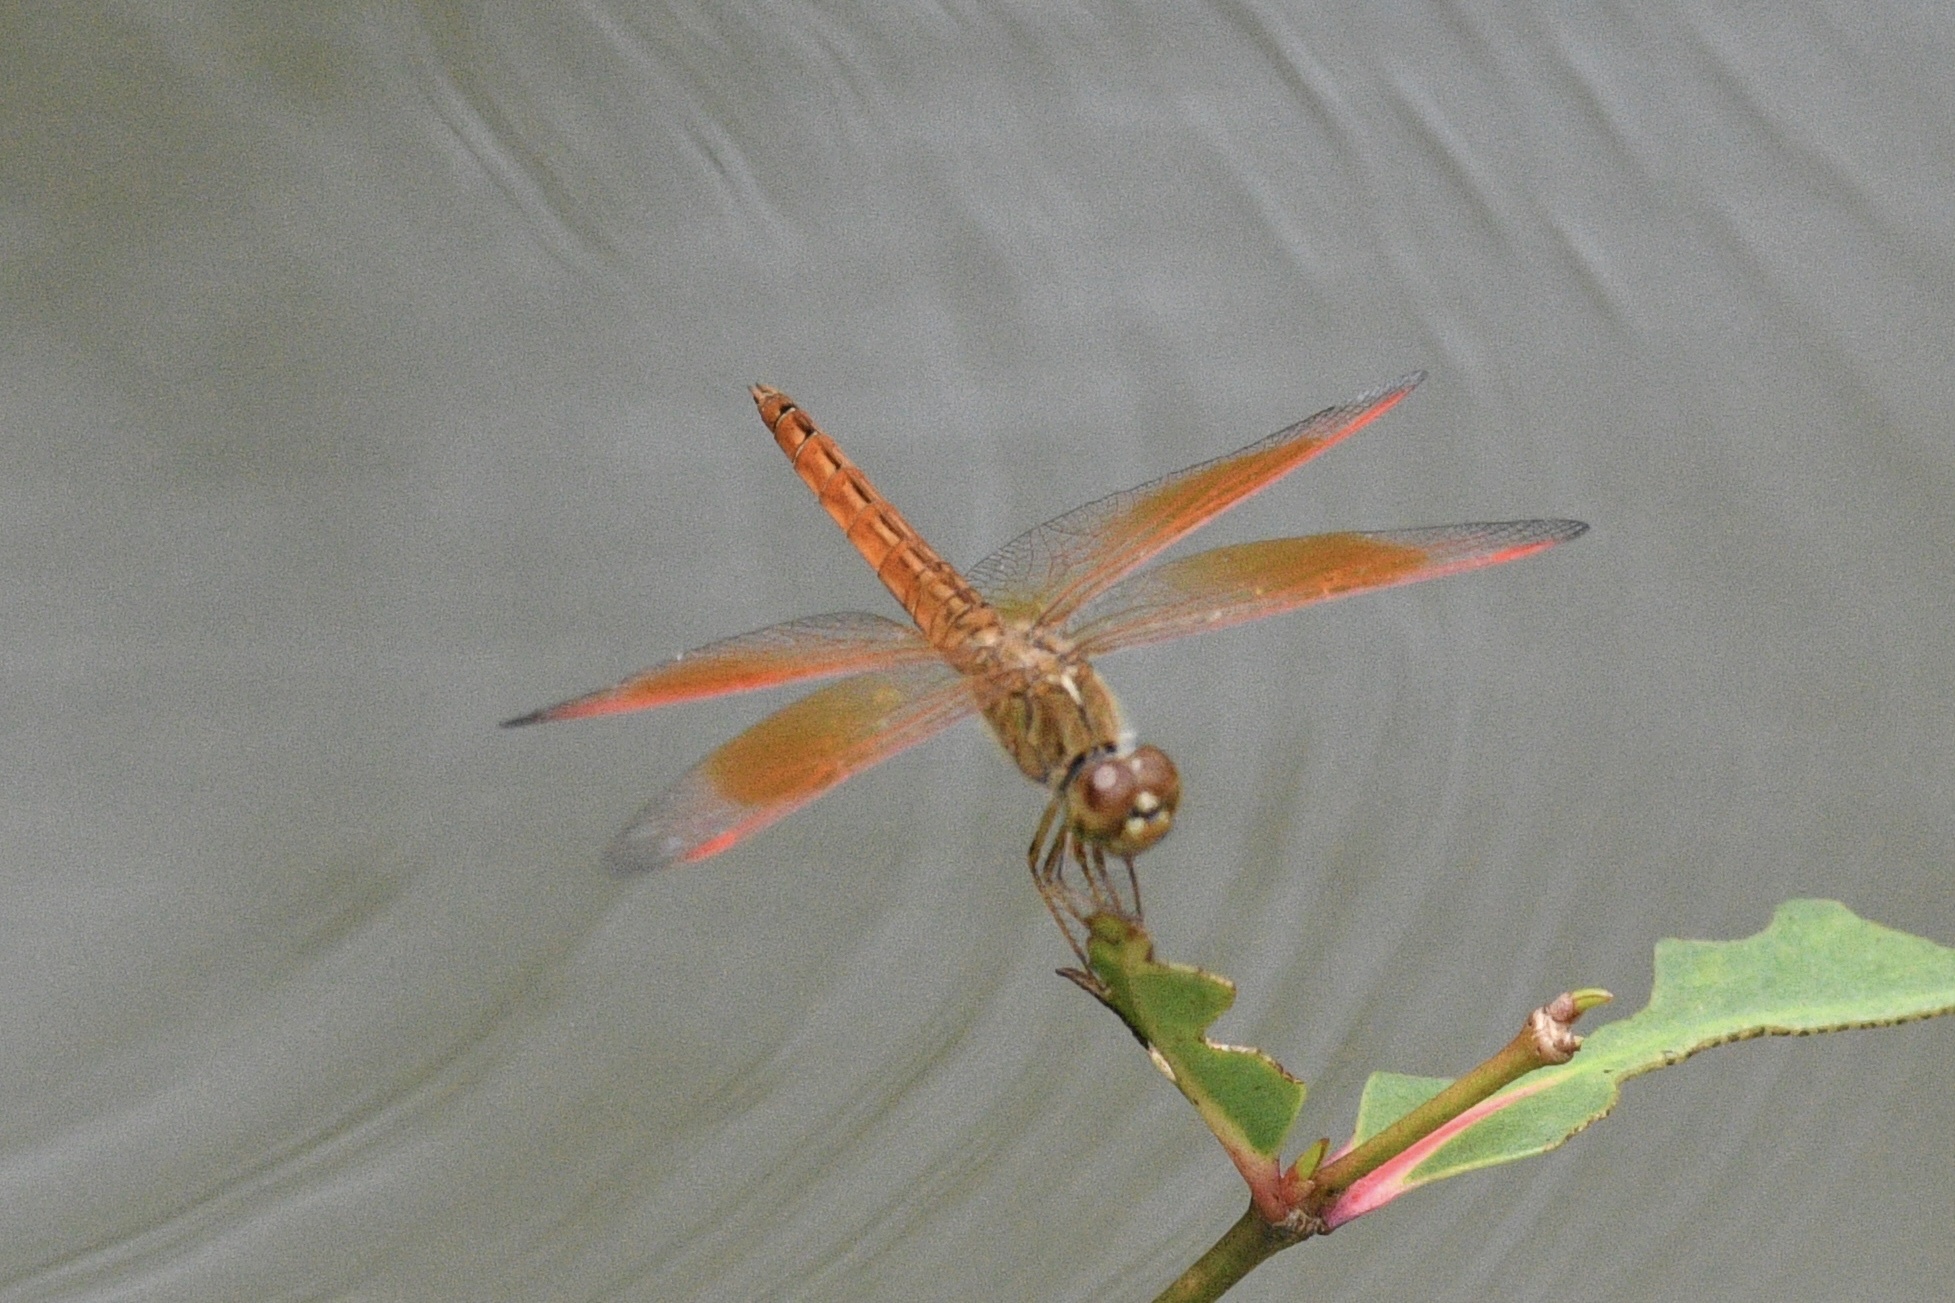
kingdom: Animalia
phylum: Arthropoda
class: Insecta
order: Odonata
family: Libellulidae
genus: Brachythemis
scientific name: Brachythemis contaminata
